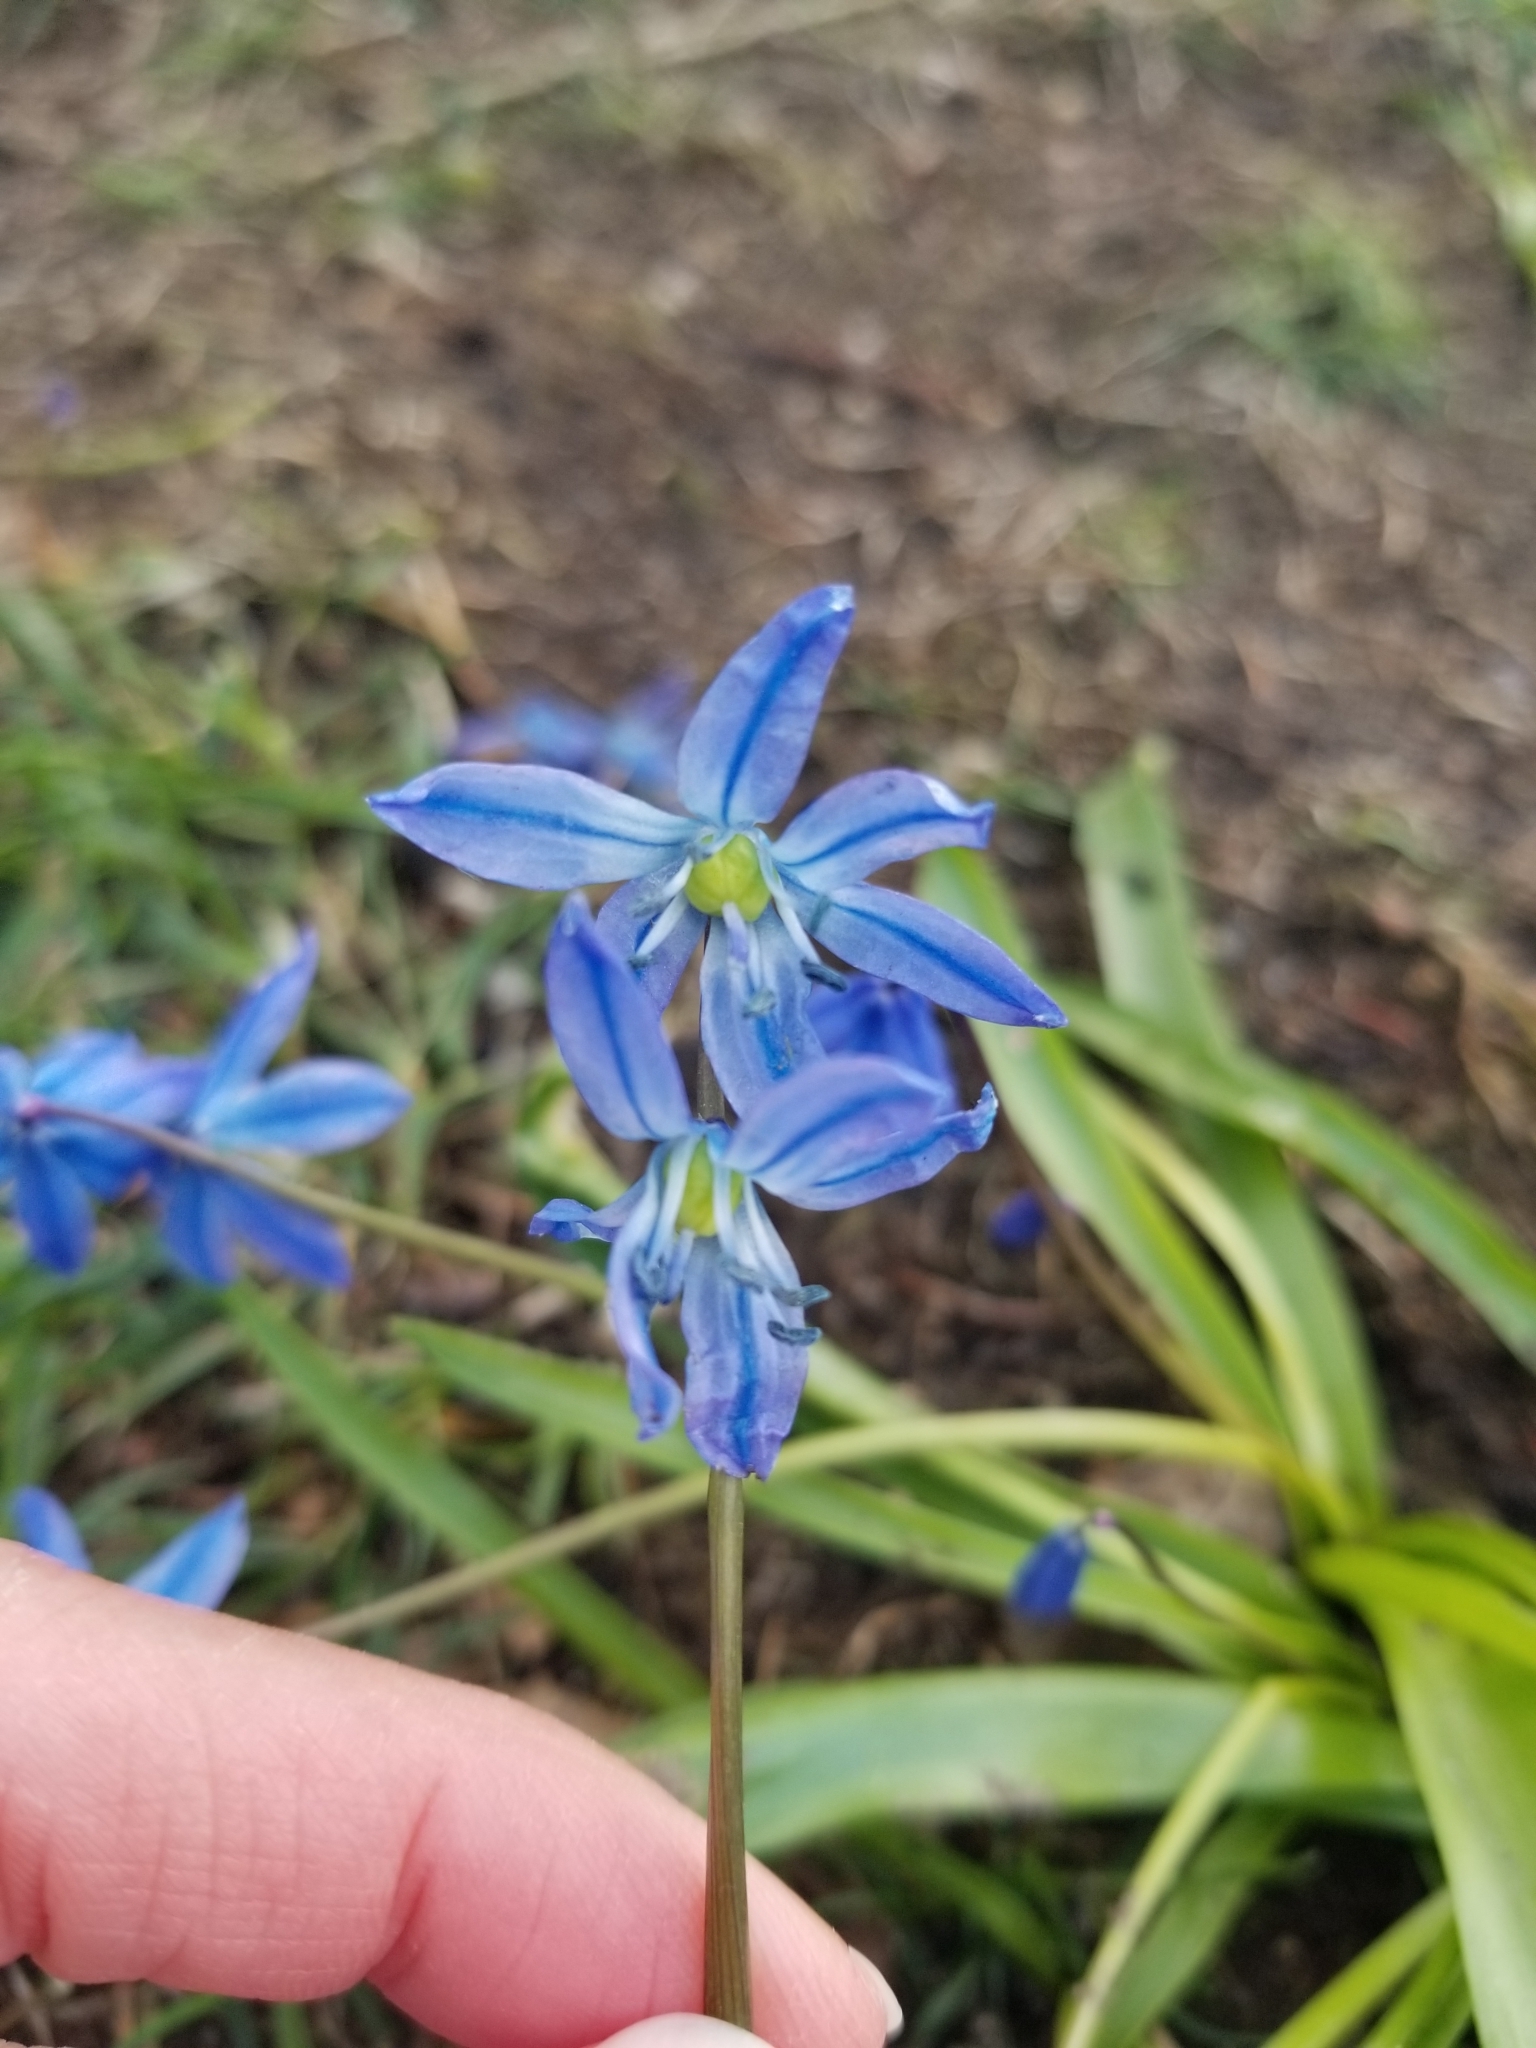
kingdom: Plantae
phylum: Tracheophyta
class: Liliopsida
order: Asparagales
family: Asparagaceae
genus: Scilla
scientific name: Scilla siberica
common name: Siberian squill
